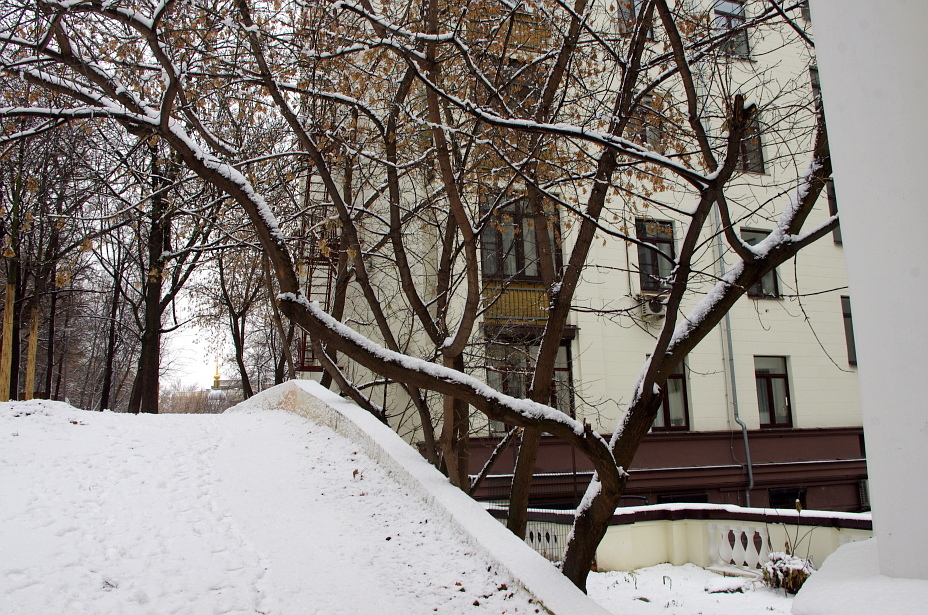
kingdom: Plantae
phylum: Tracheophyta
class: Magnoliopsida
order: Sapindales
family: Sapindaceae
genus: Acer
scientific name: Acer negundo
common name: Ashleaf maple
